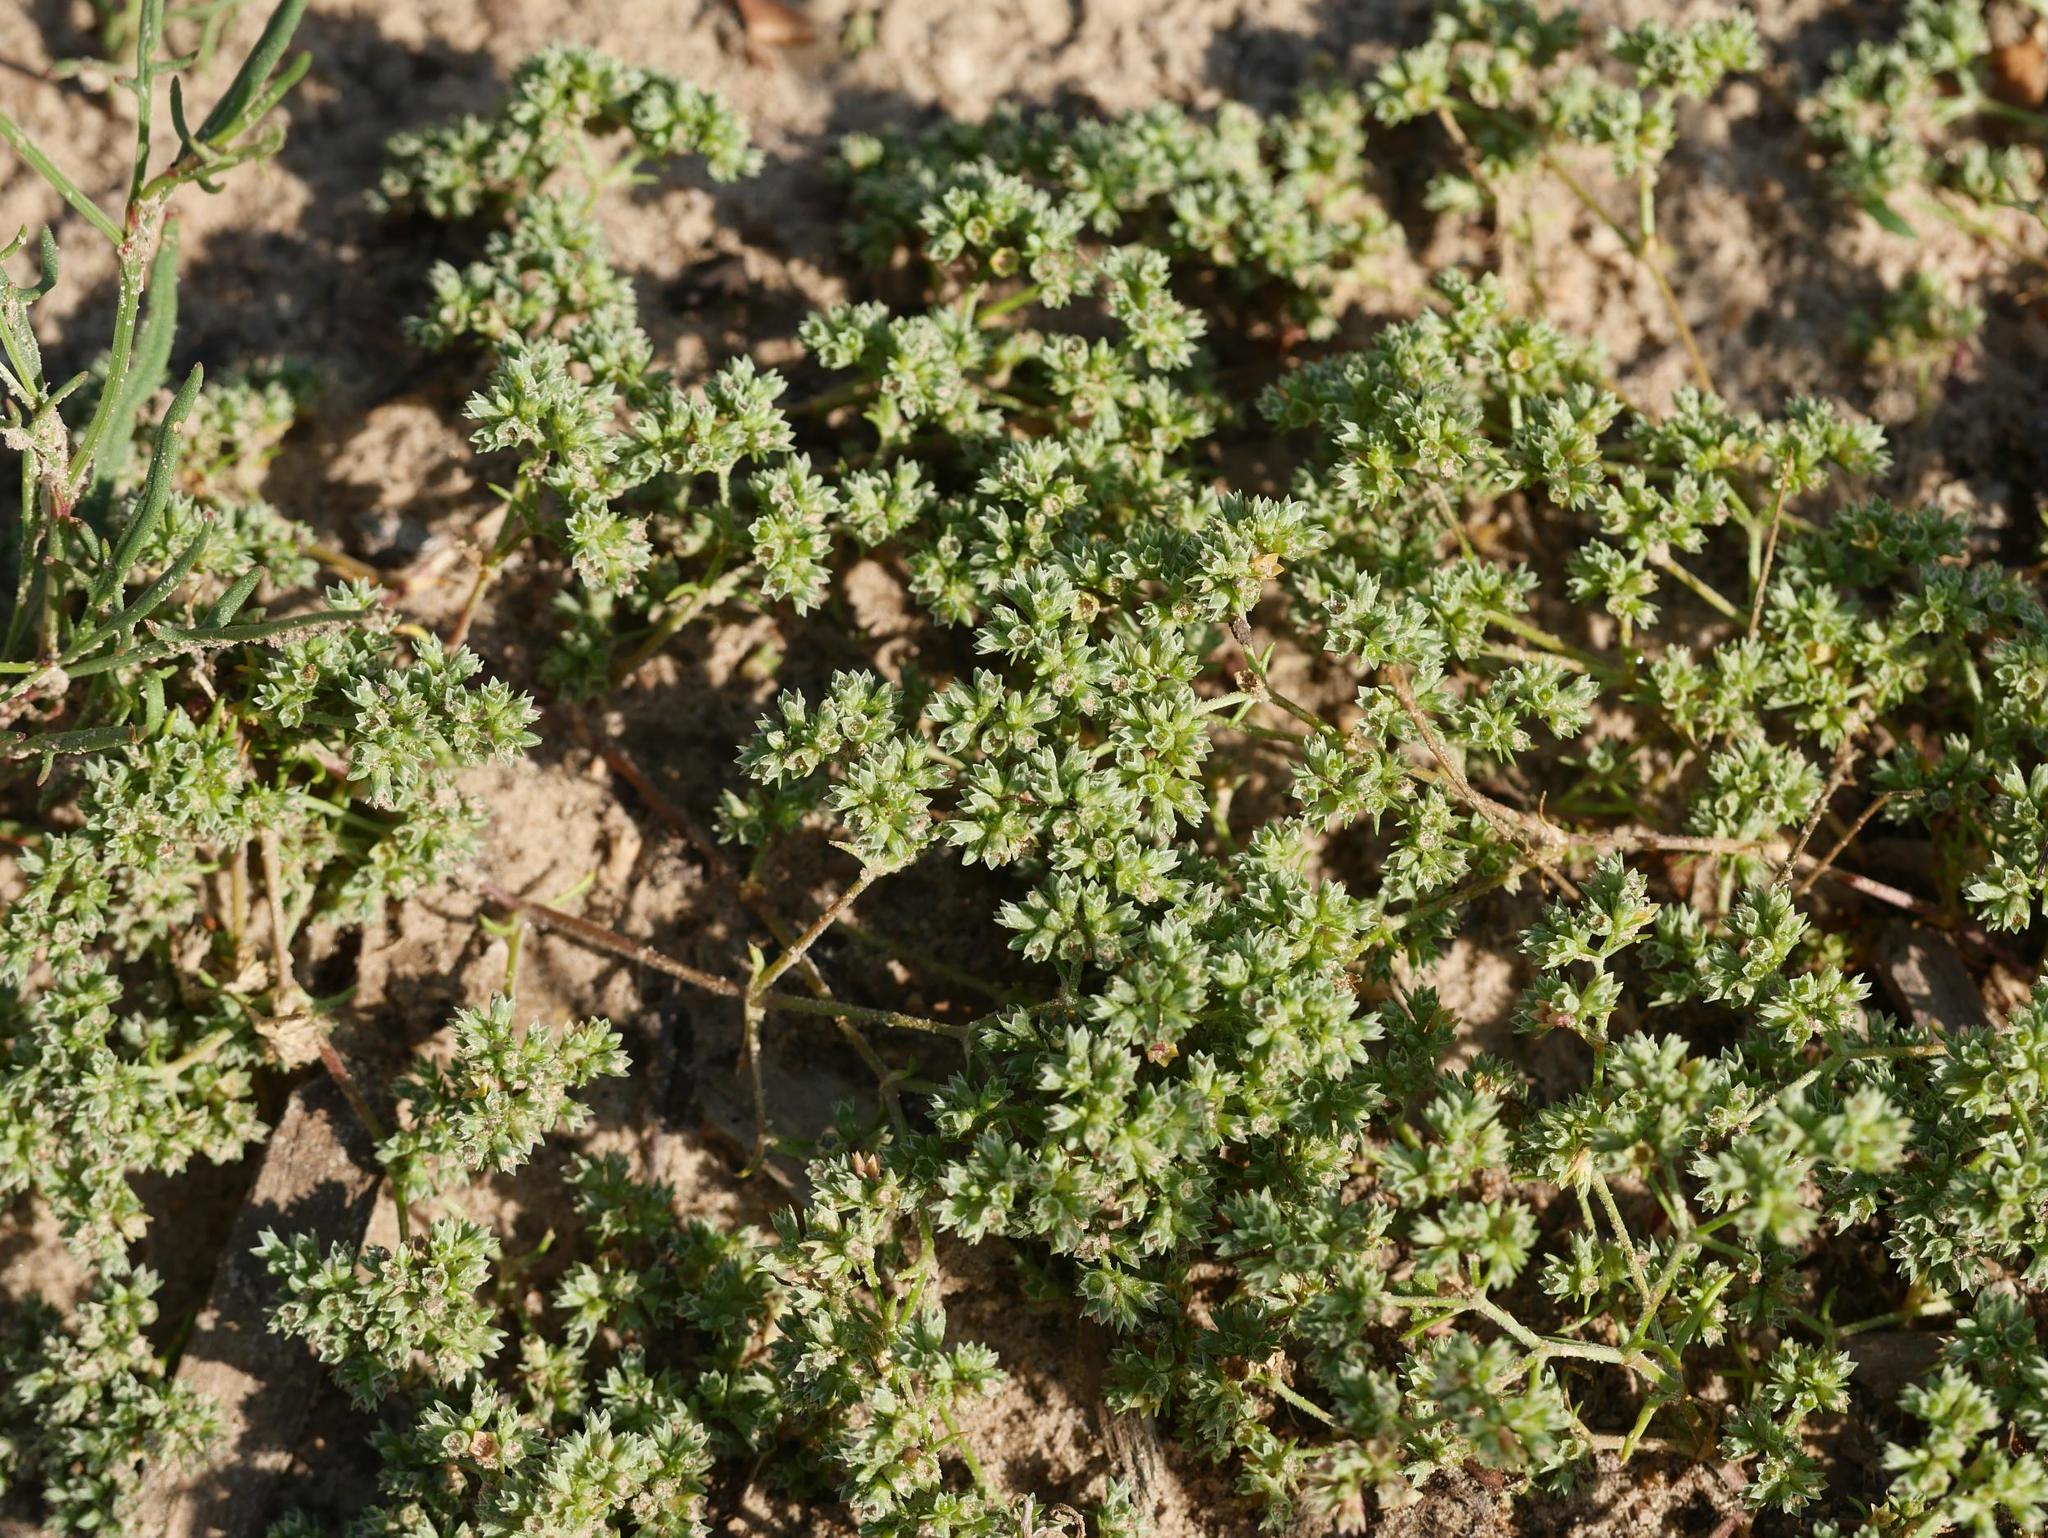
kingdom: Plantae
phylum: Tracheophyta
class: Magnoliopsida
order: Caryophyllales
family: Caryophyllaceae
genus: Scleranthus
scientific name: Scleranthus annuus
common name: Annual knawel
